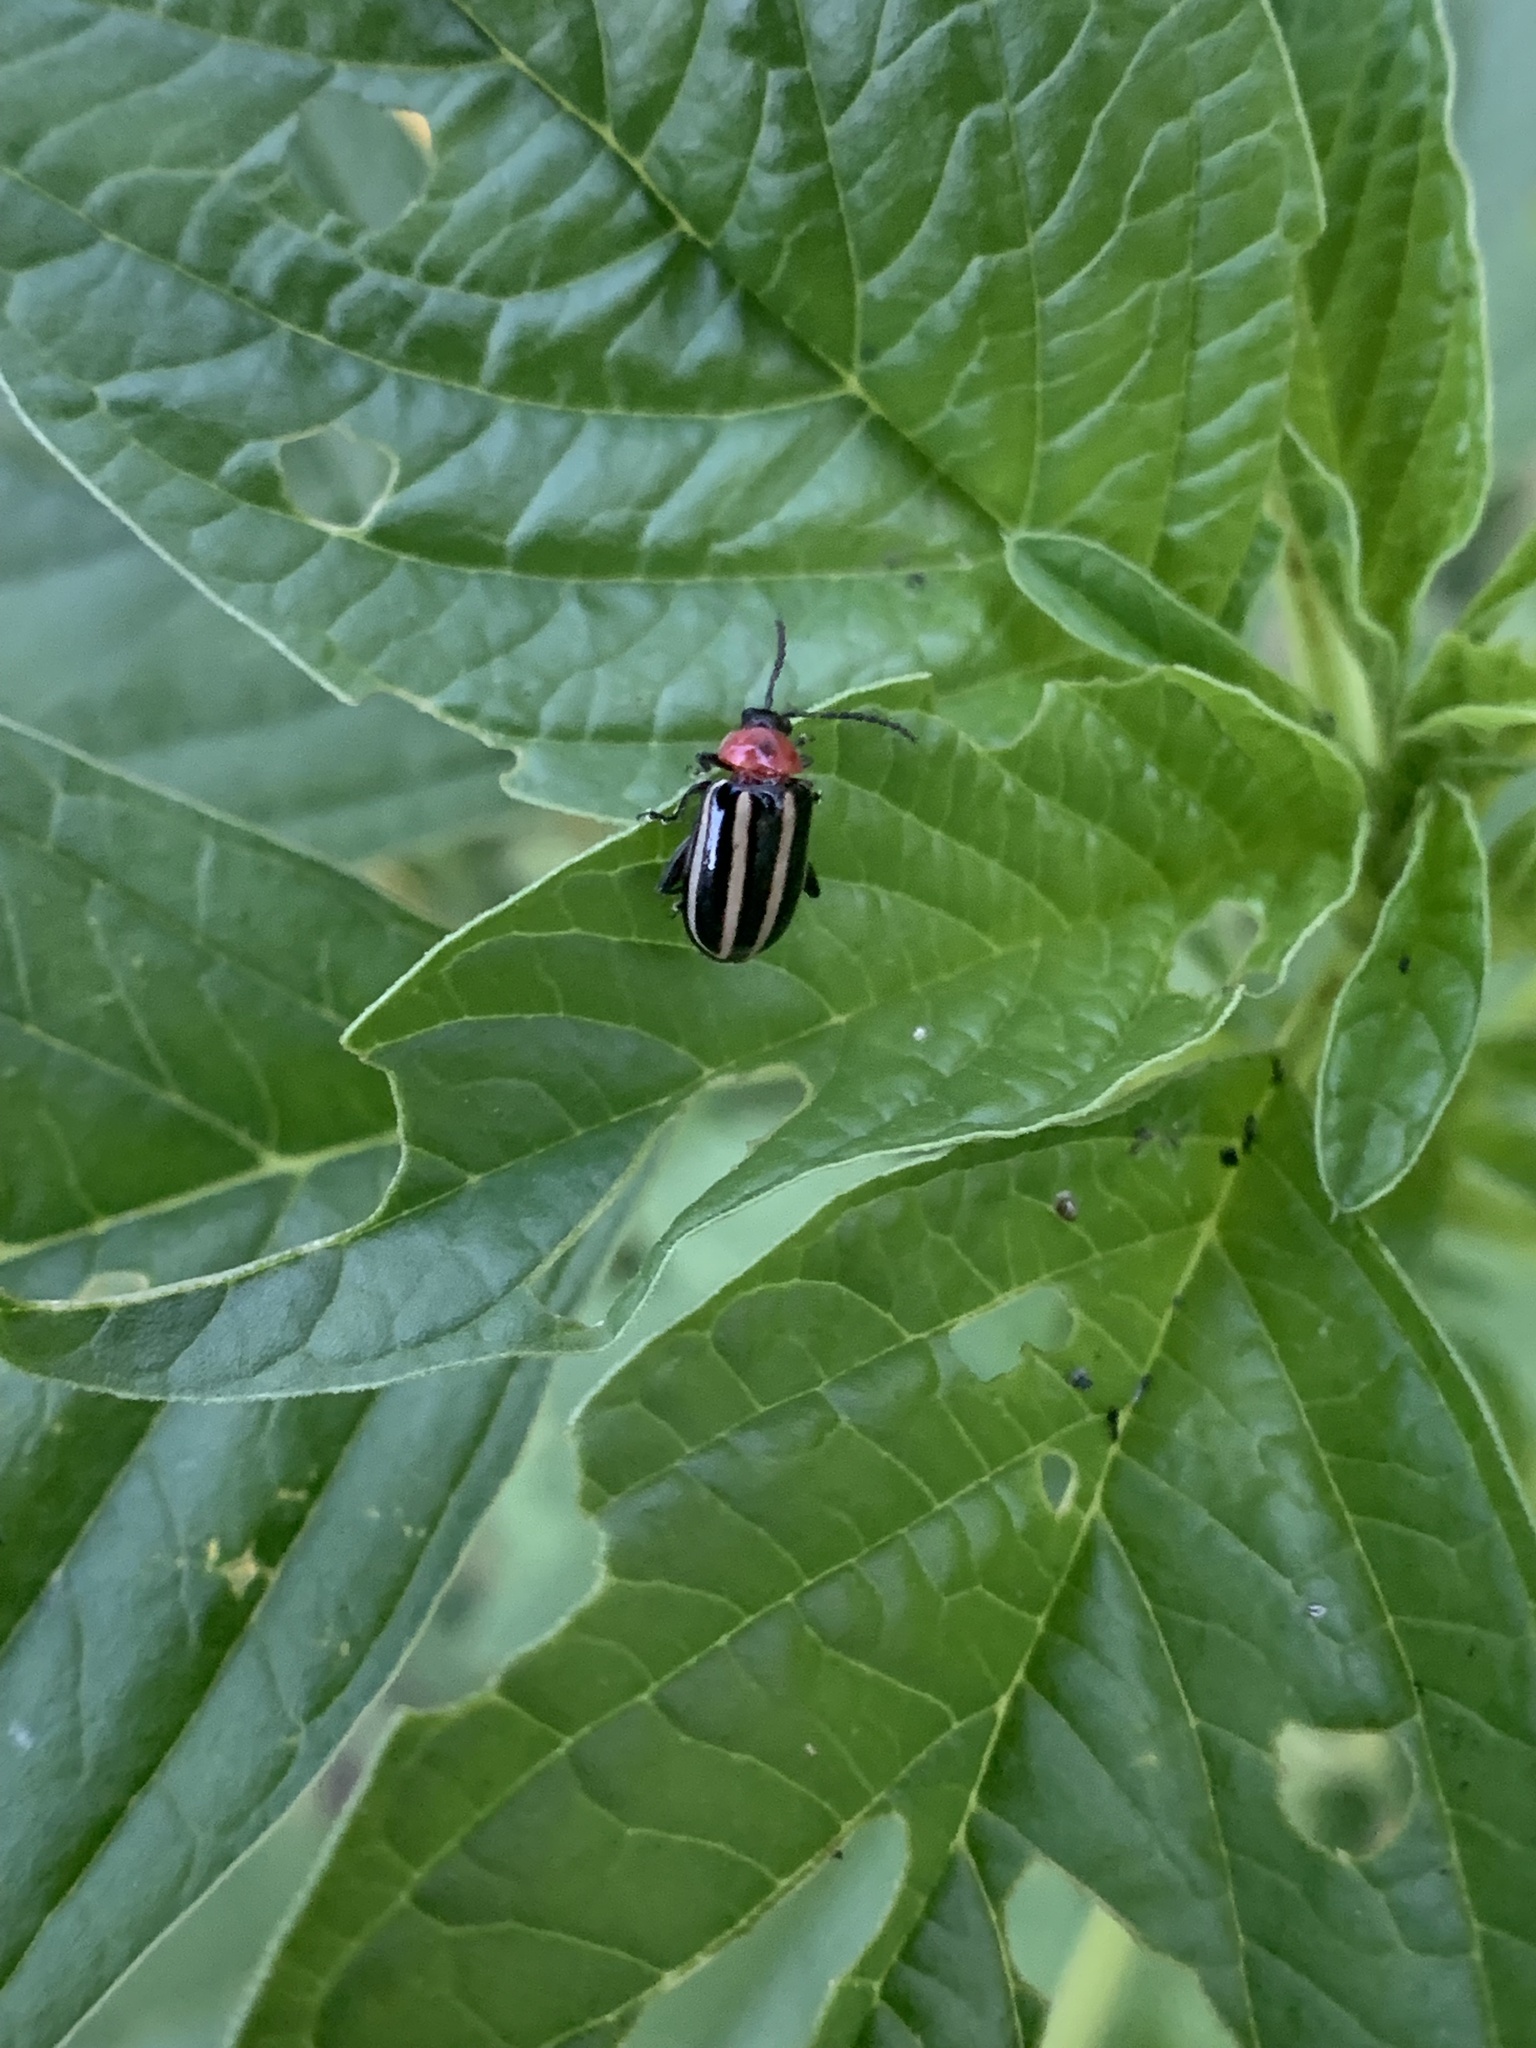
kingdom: Animalia
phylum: Arthropoda
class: Insecta
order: Coleoptera
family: Chrysomelidae
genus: Disonycha
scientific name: Disonycha glabrata
